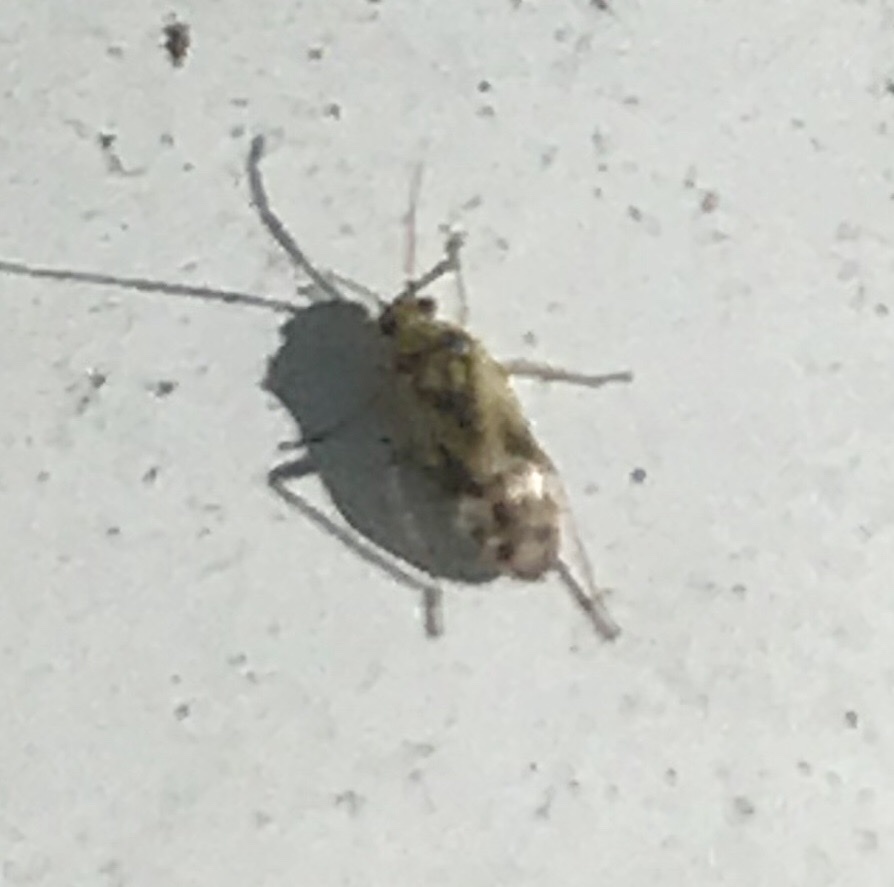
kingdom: Animalia
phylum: Arthropoda
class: Insecta
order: Hemiptera
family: Miridae
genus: Plagiognathus
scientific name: Plagiognathus albatus
